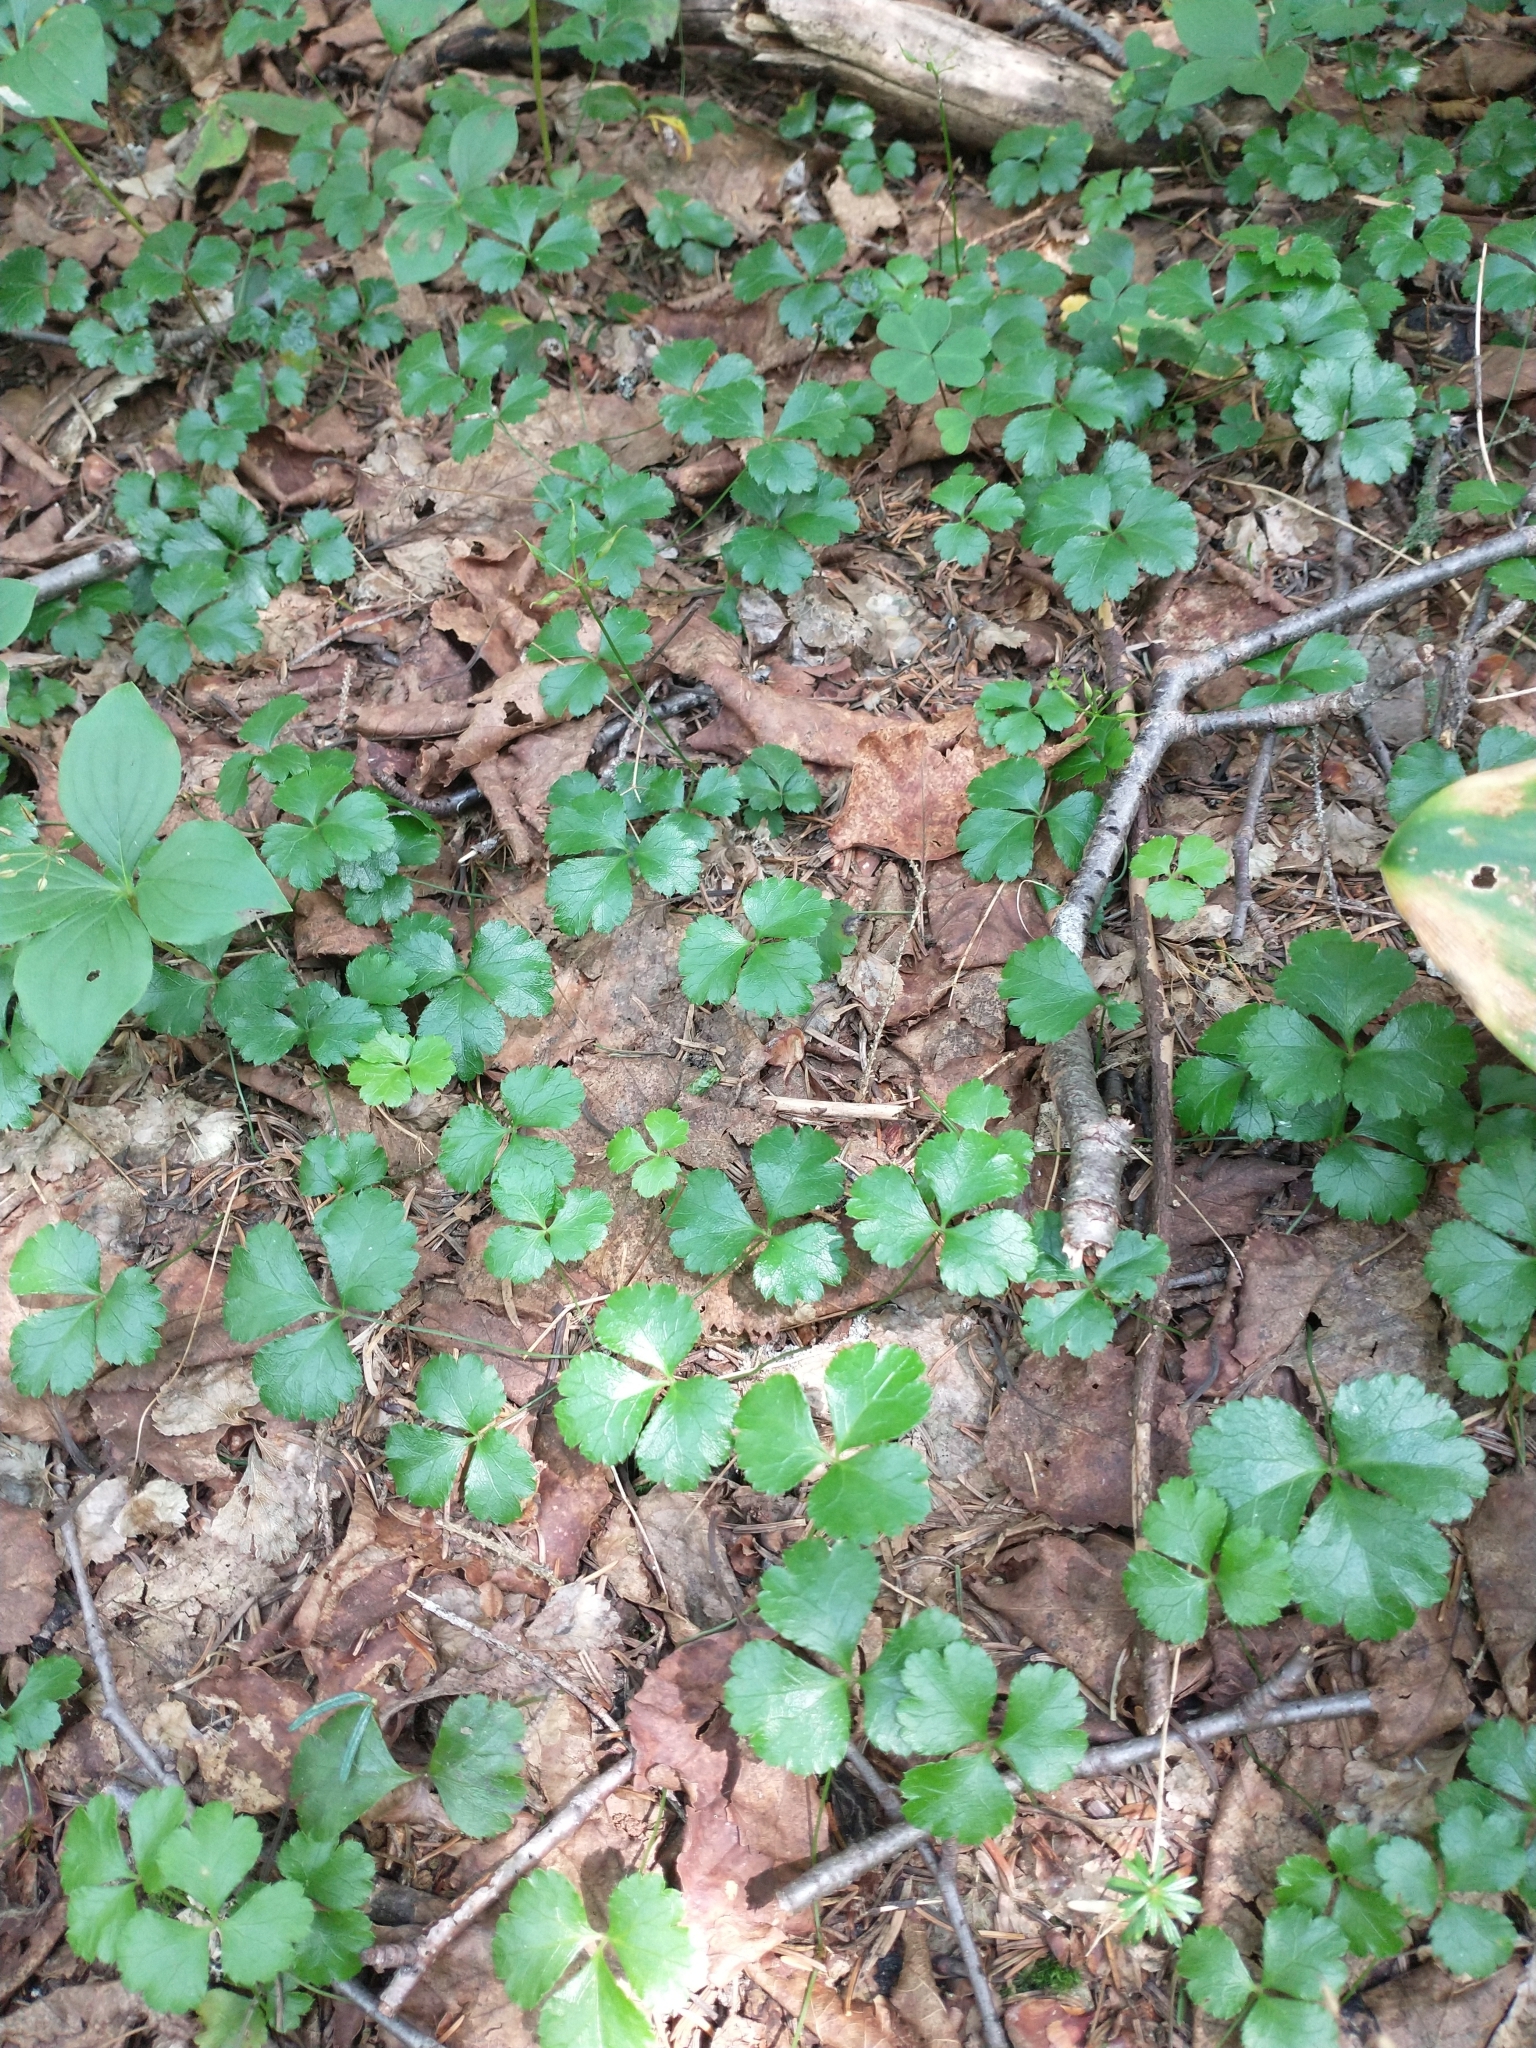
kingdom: Plantae
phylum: Tracheophyta
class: Magnoliopsida
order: Ranunculales
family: Ranunculaceae
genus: Coptis
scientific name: Coptis trifolia
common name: Canker-root
